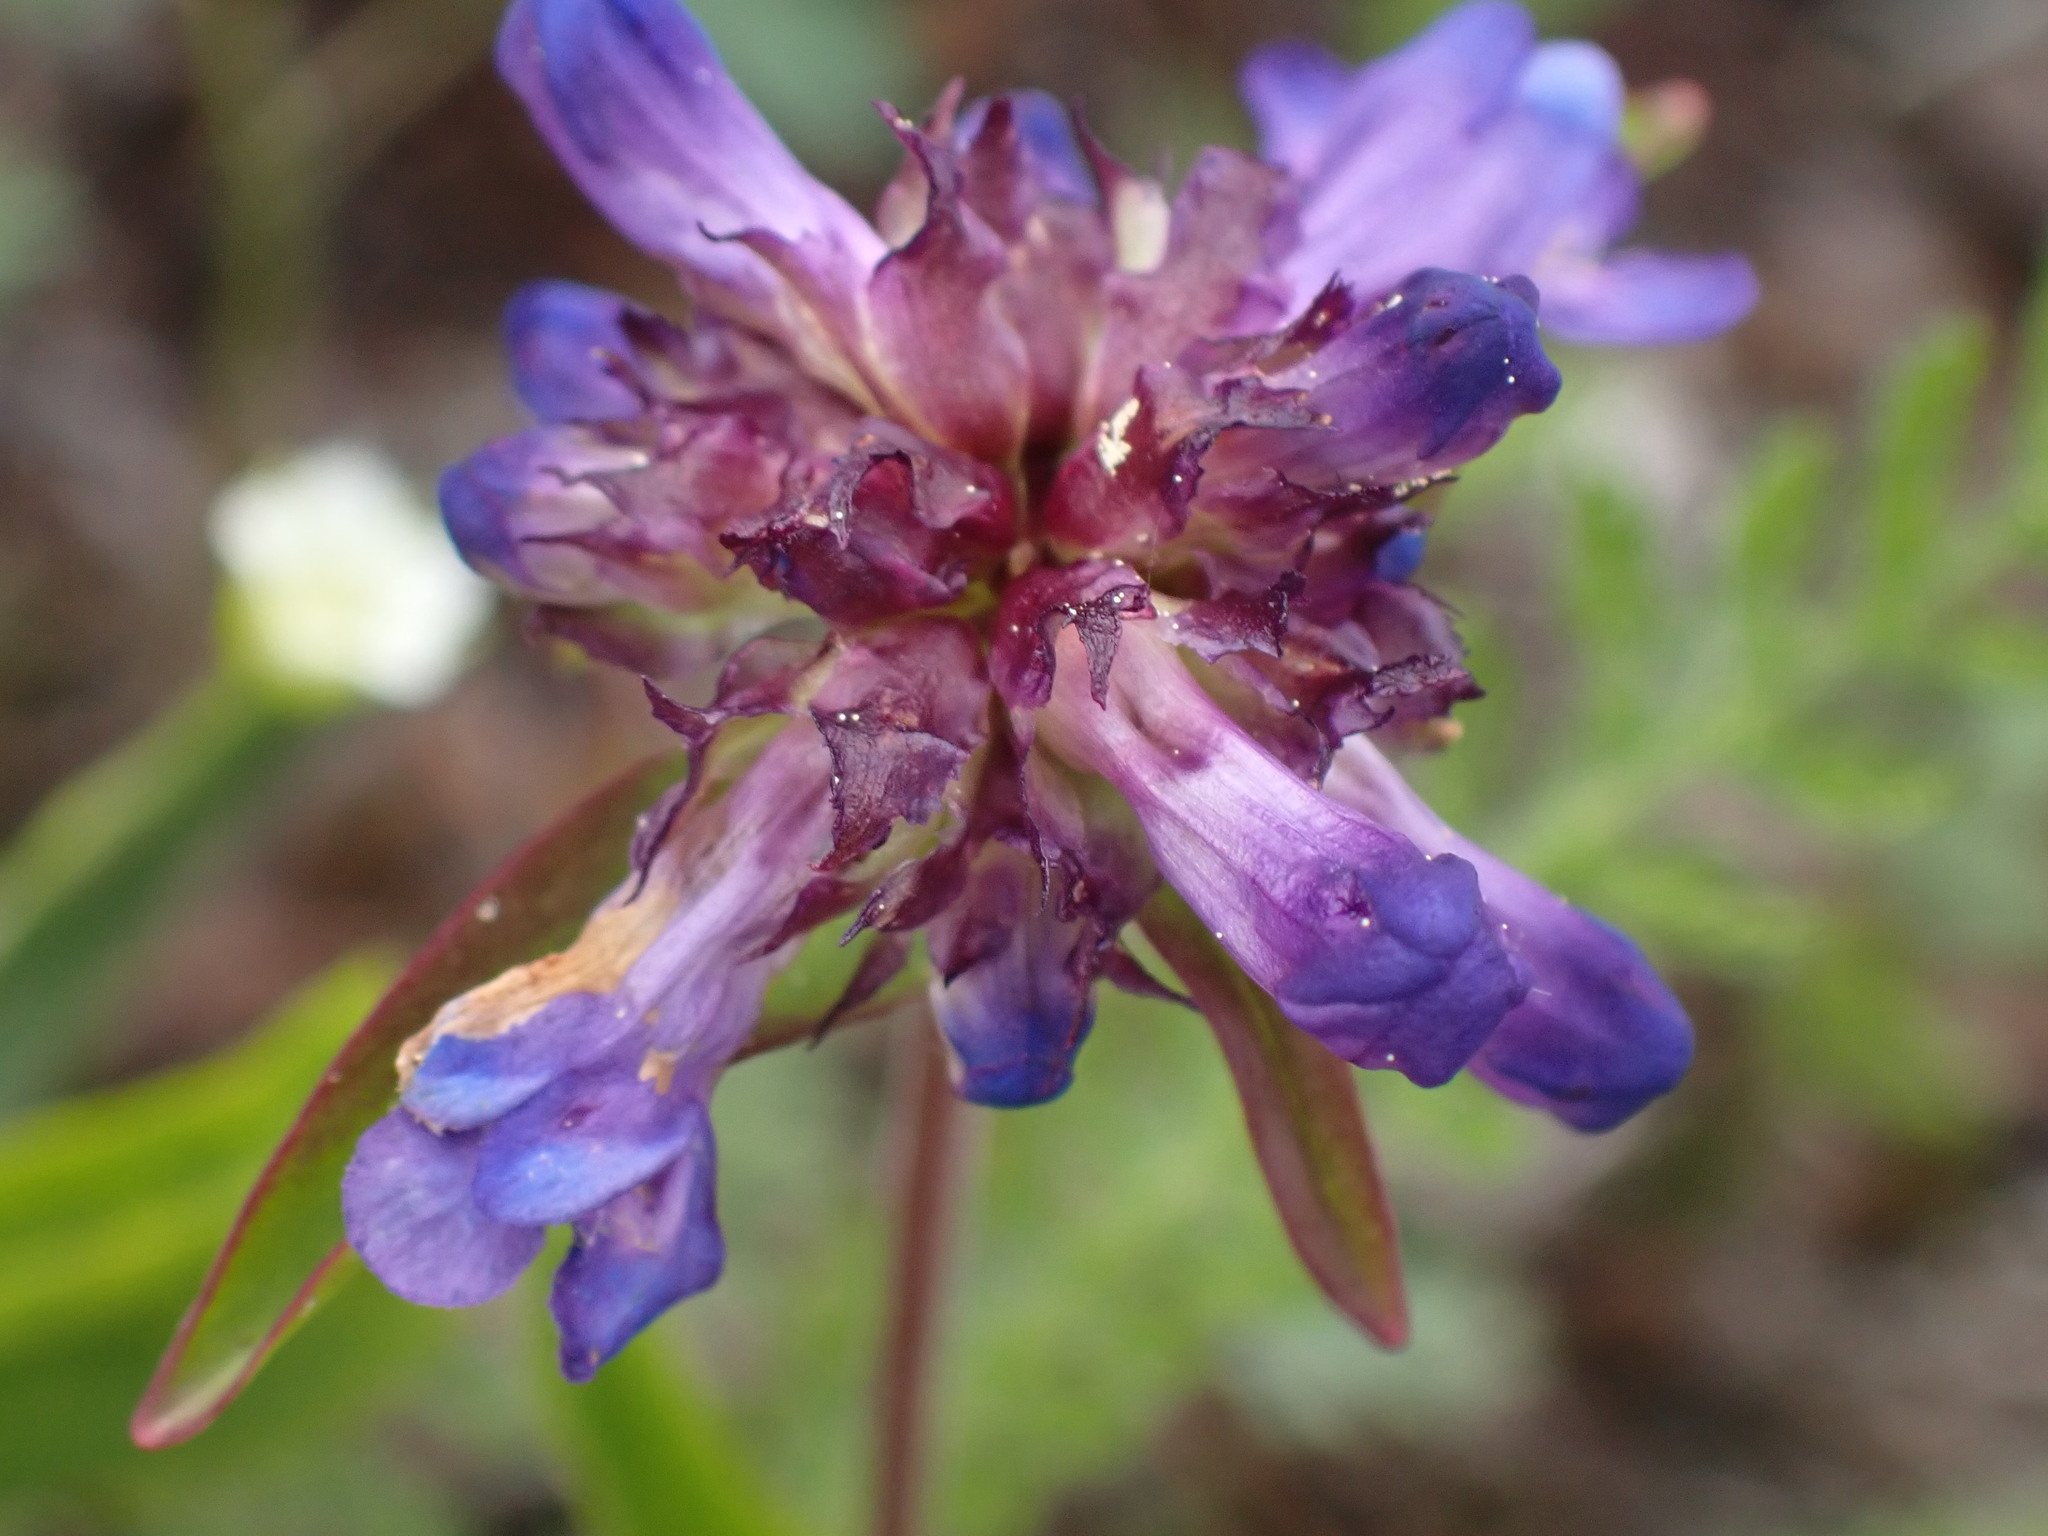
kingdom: Plantae
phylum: Tracheophyta
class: Magnoliopsida
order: Lamiales
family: Plantaginaceae
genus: Penstemon
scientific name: Penstemon procerus
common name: Small-flower penstemon
